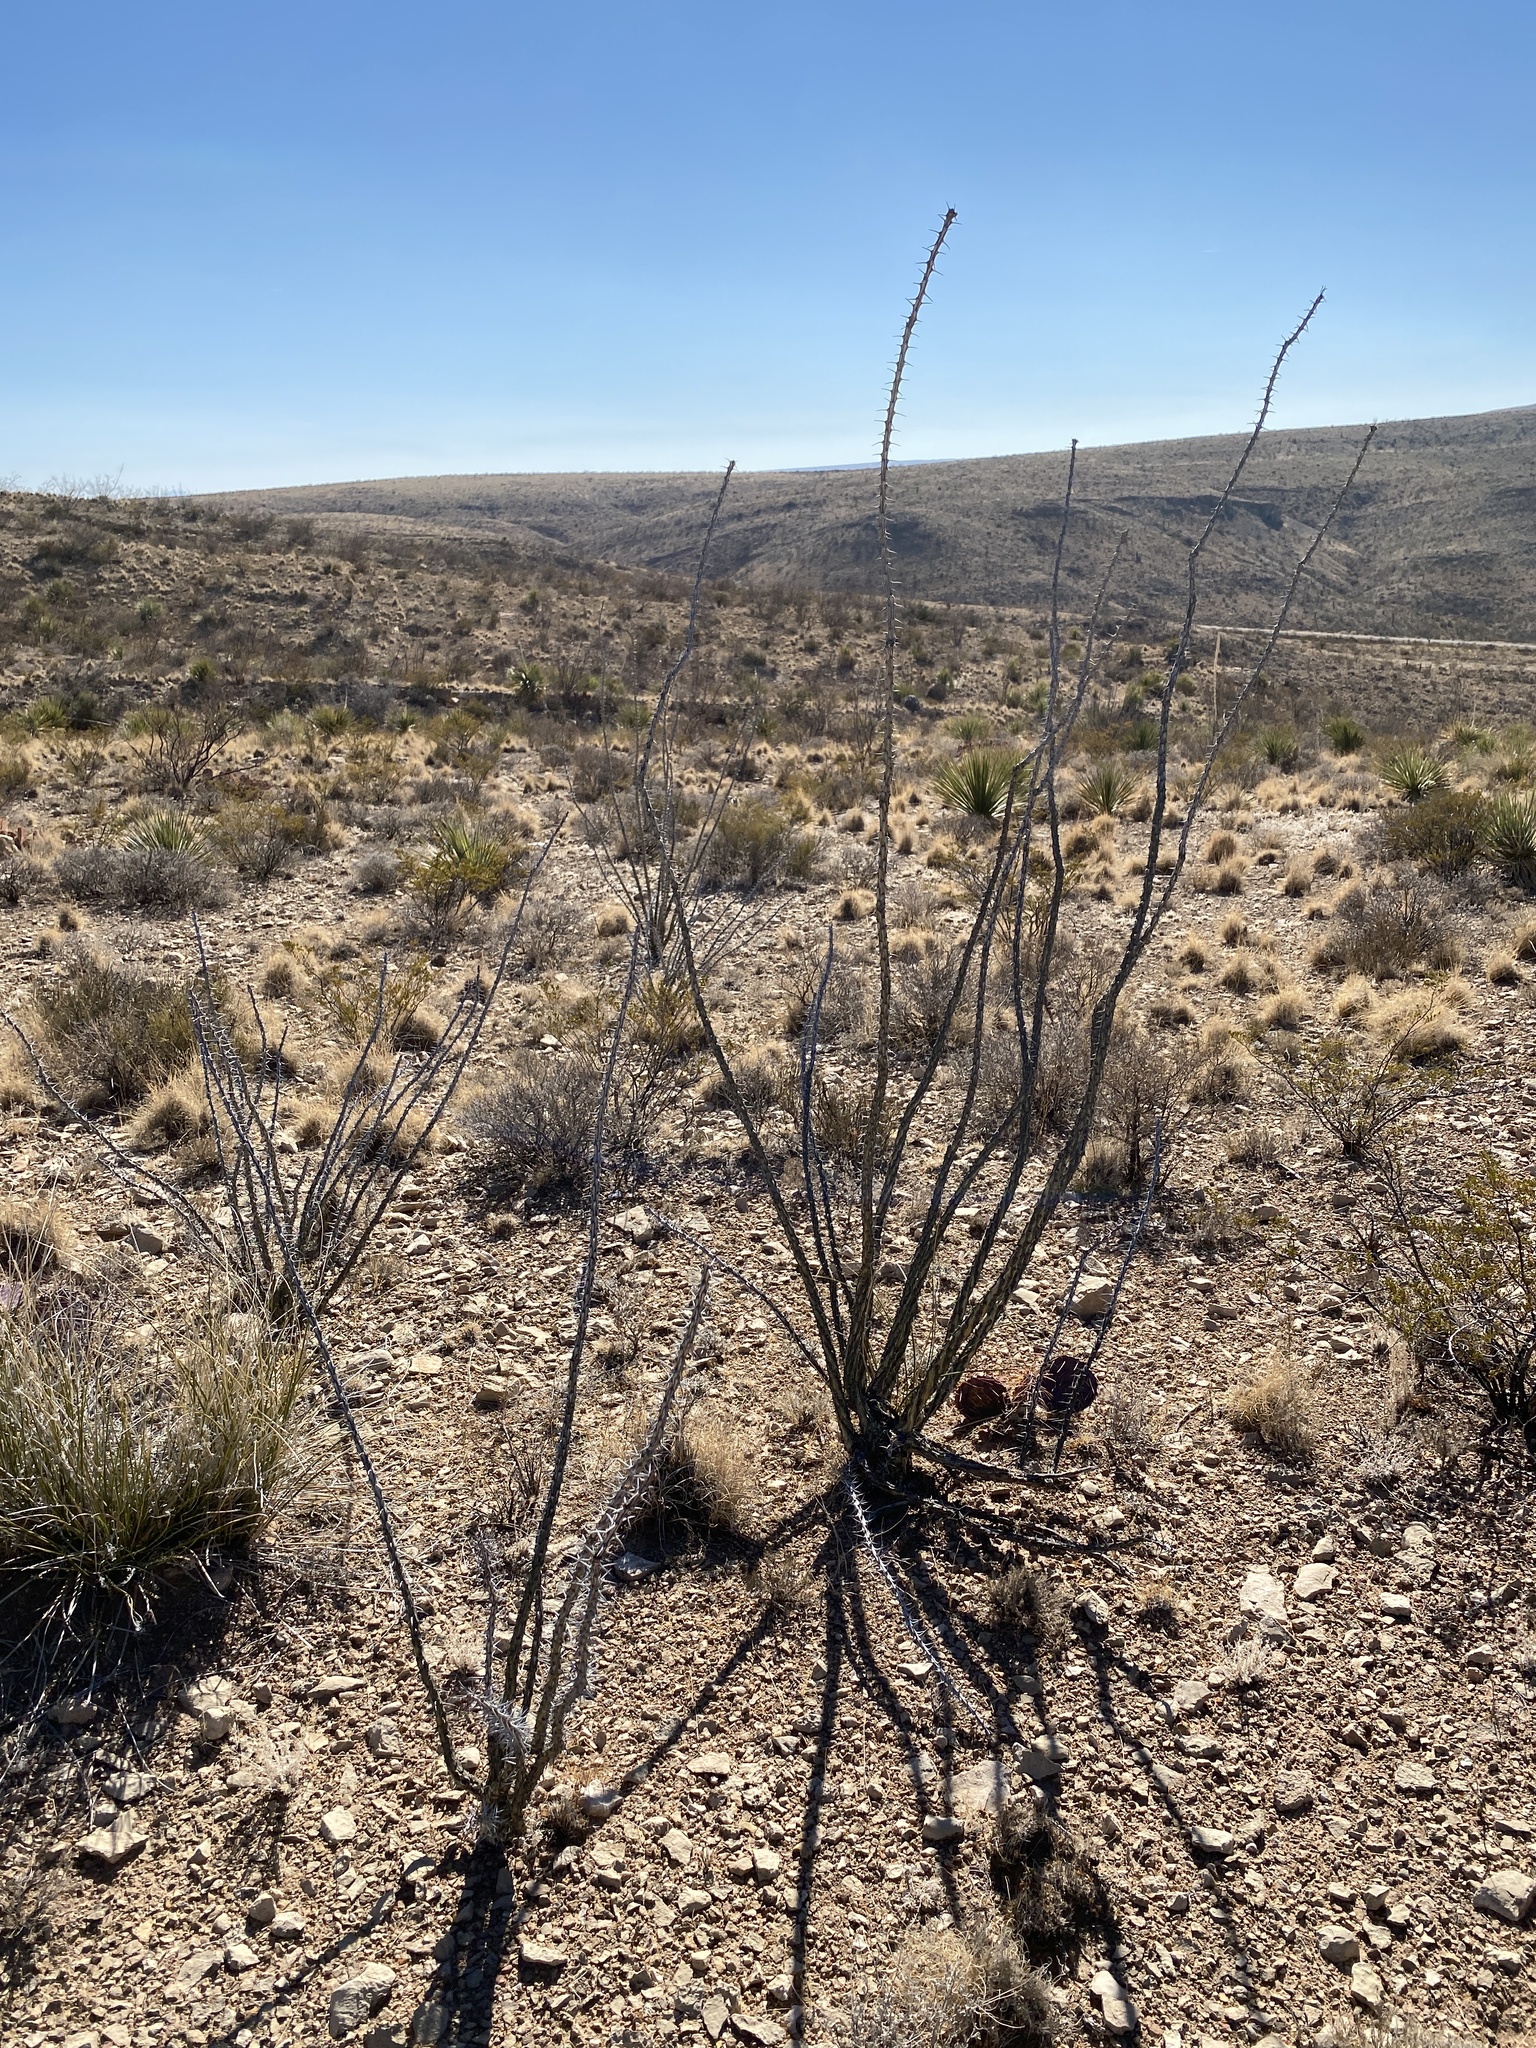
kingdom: Plantae
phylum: Tracheophyta
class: Magnoliopsida
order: Ericales
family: Fouquieriaceae
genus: Fouquieria
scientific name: Fouquieria splendens
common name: Vine-cactus
